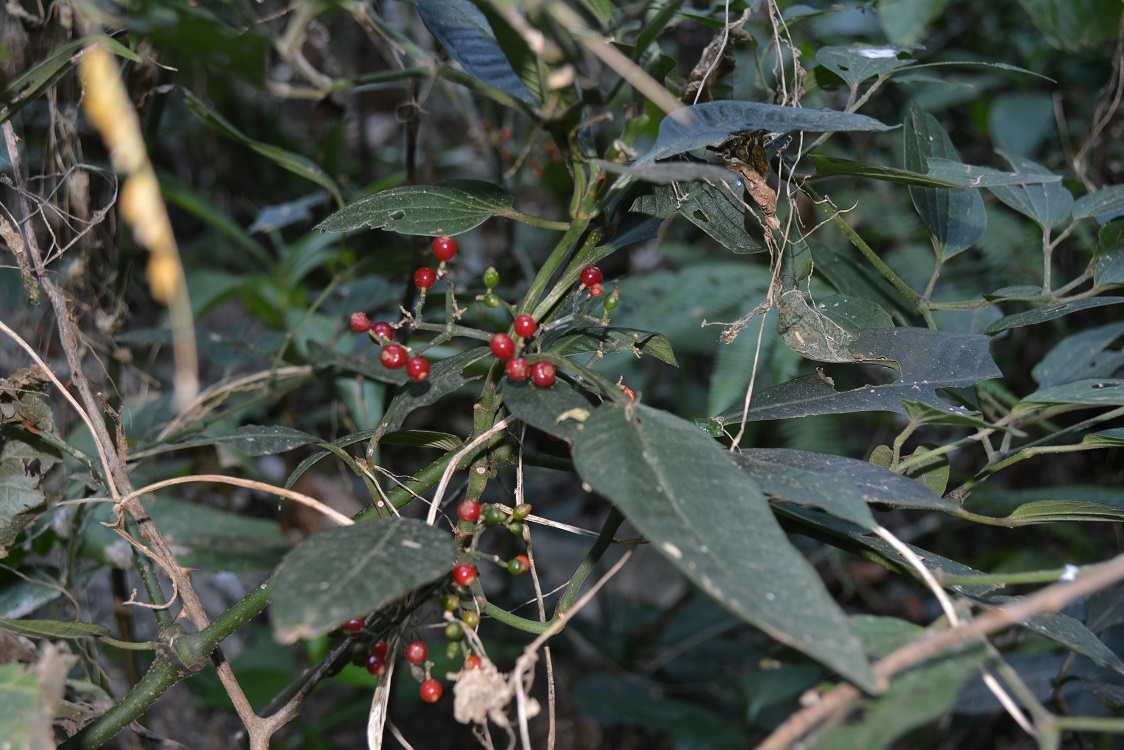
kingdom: Plantae
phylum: Tracheophyta
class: Magnoliopsida
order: Gentianales
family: Rubiaceae
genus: Psychotria
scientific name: Psychotria nervosa
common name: Bastard cankerberry
